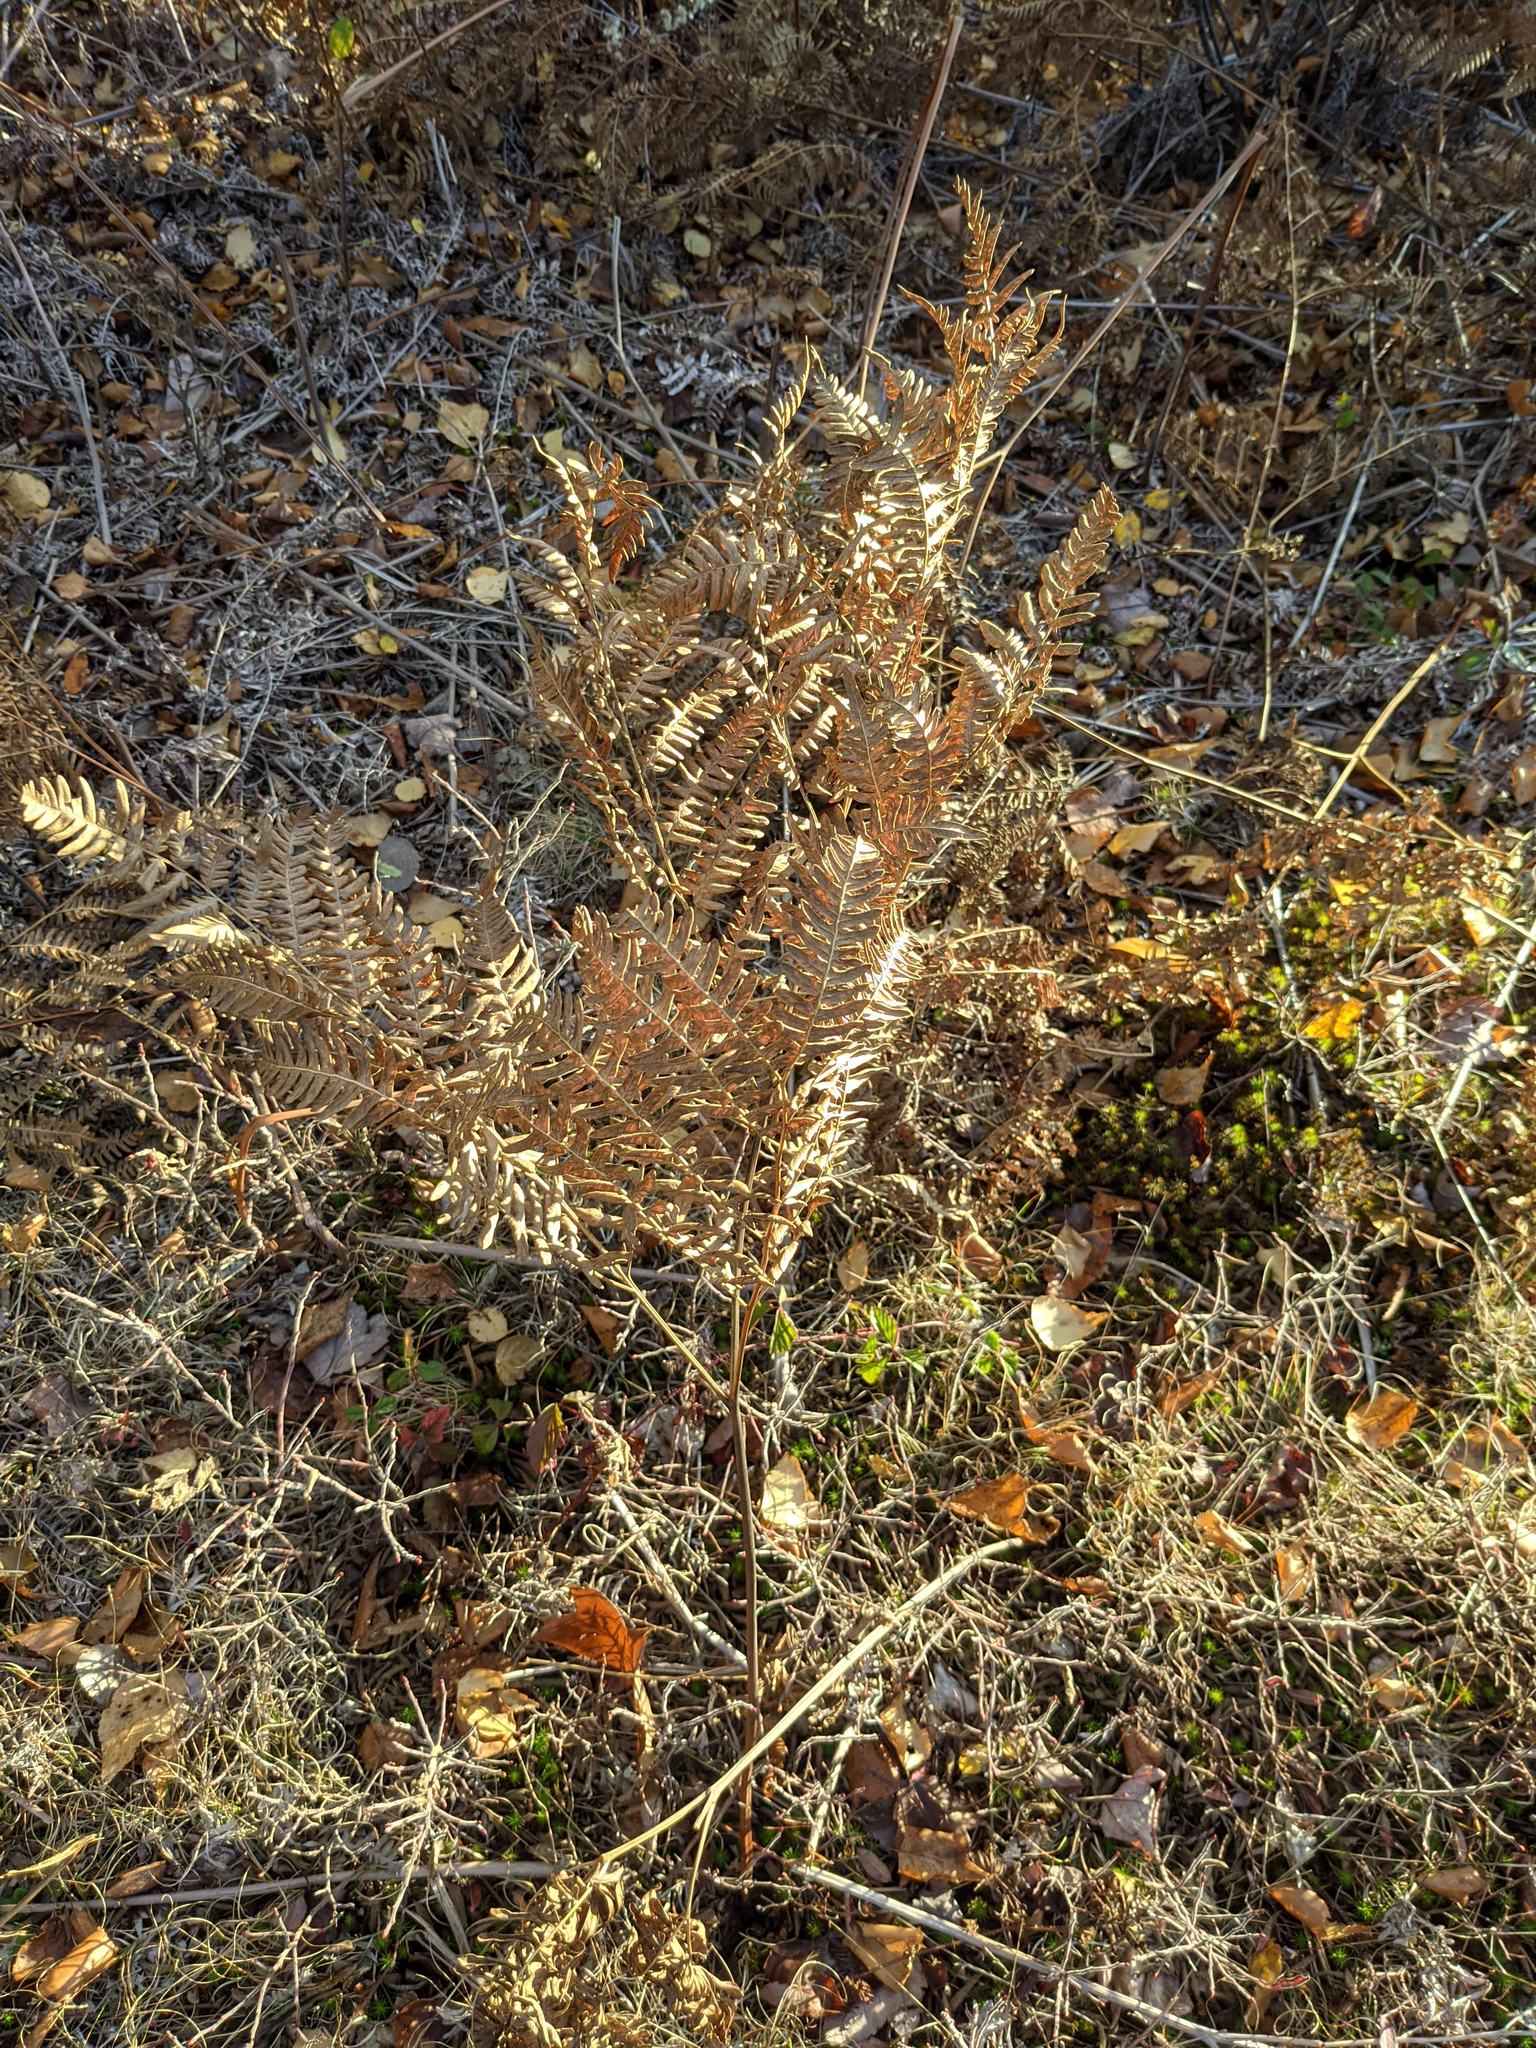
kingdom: Plantae
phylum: Tracheophyta
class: Polypodiopsida
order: Polypodiales
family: Dennstaedtiaceae
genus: Pteridium
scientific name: Pteridium aquilinum
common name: Bracken
